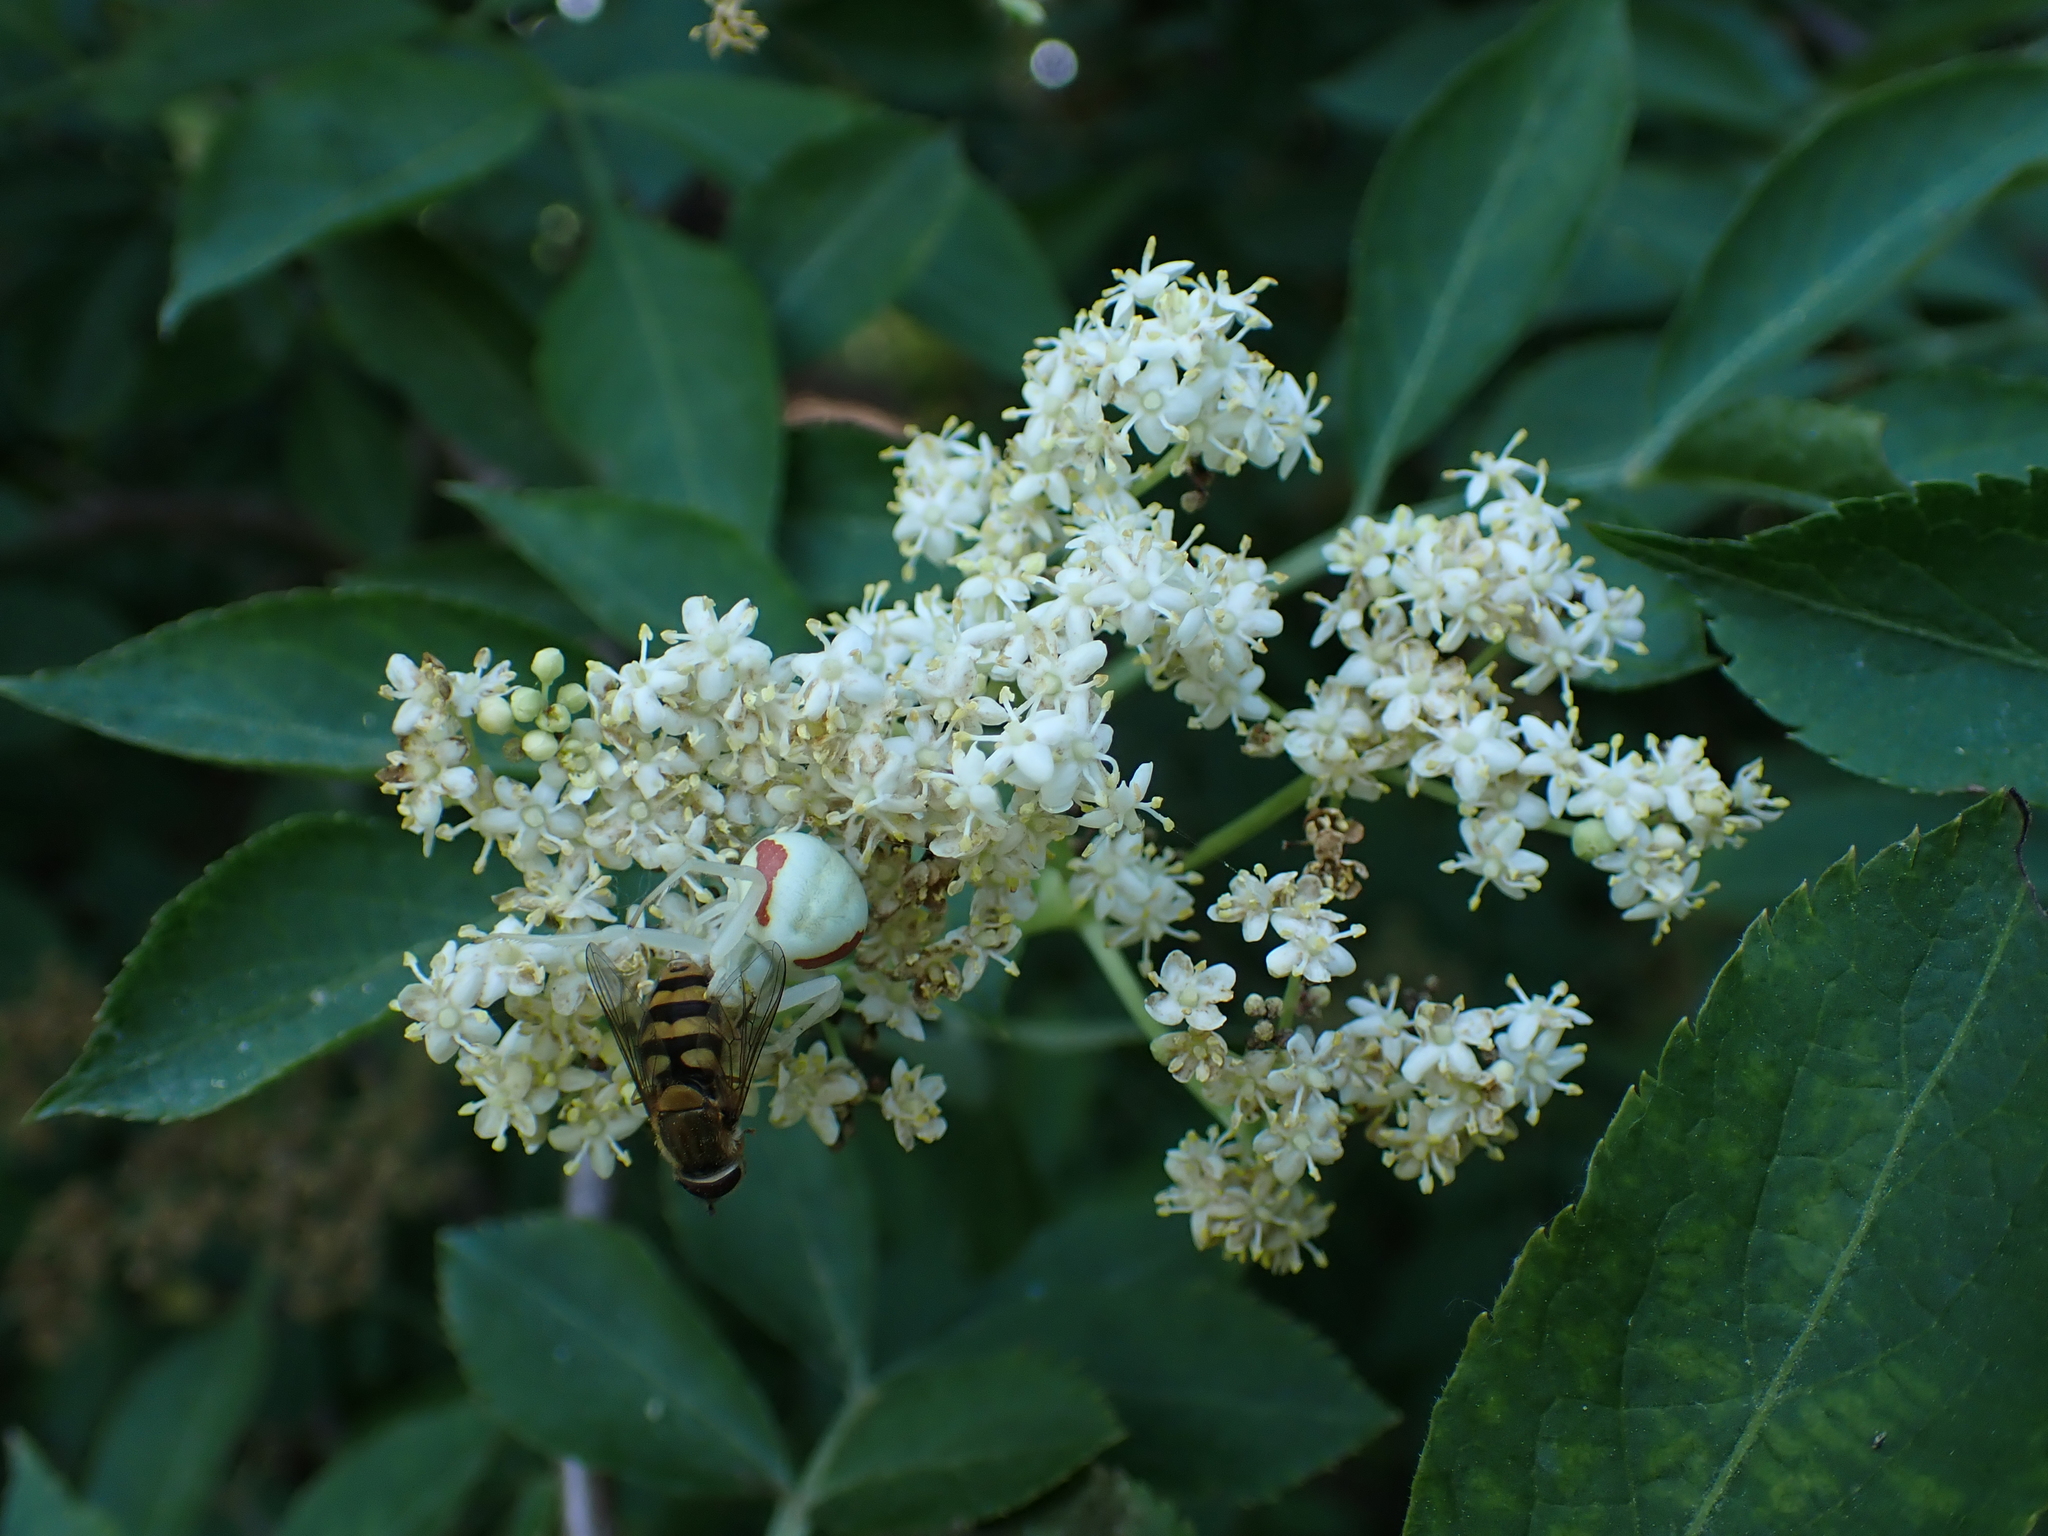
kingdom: Animalia
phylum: Arthropoda
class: Arachnida
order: Araneae
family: Thomisidae
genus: Misumena
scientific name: Misumena vatia
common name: Goldenrod crab spider
